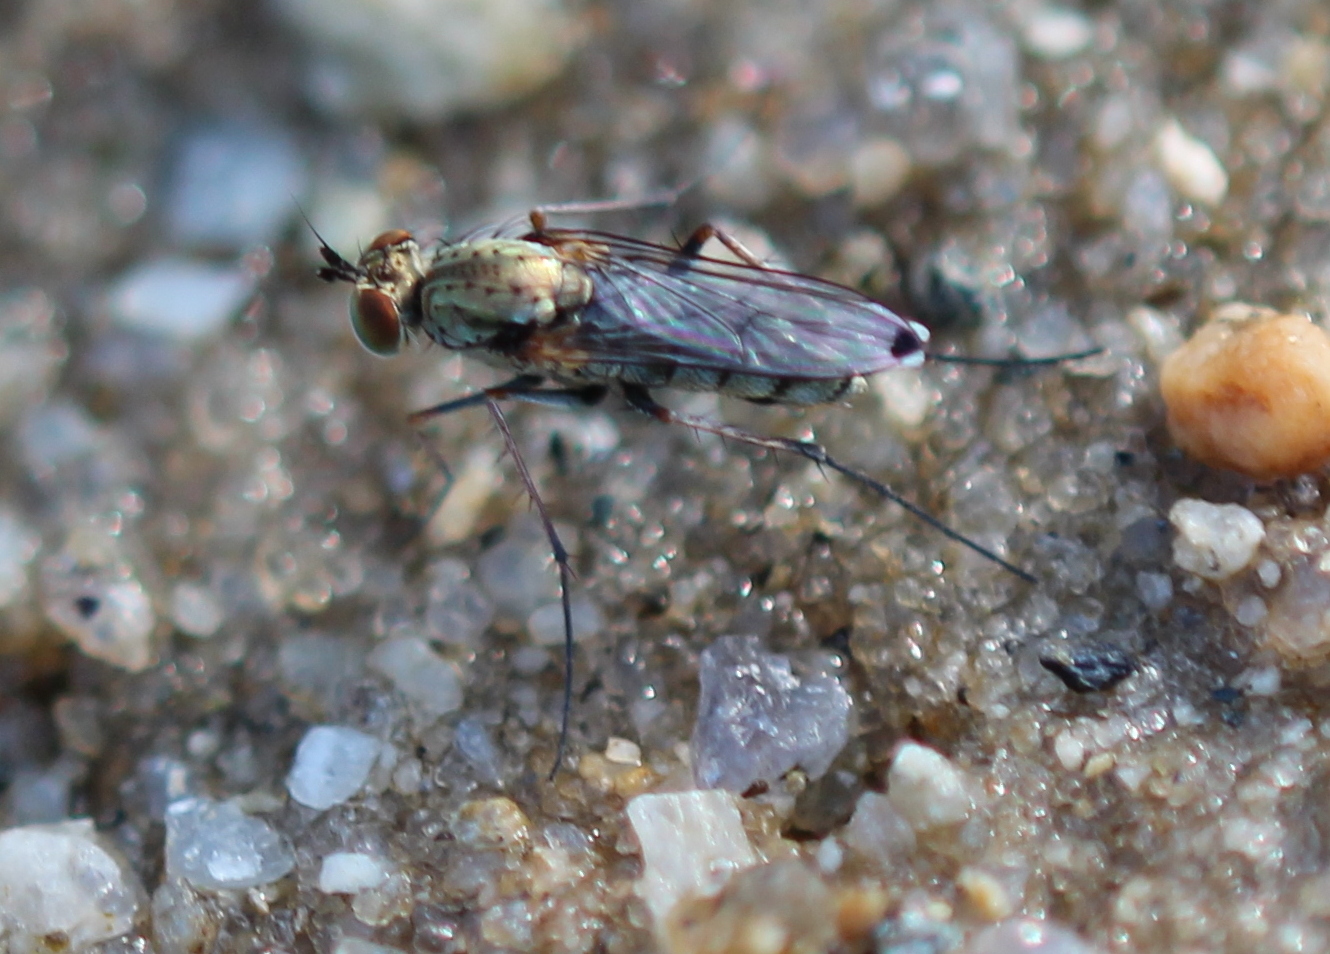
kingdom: Animalia
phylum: Arthropoda
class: Insecta
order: Diptera
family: Dolichopodidae
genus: Tachytrechus
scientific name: Tachytrechus vorax
